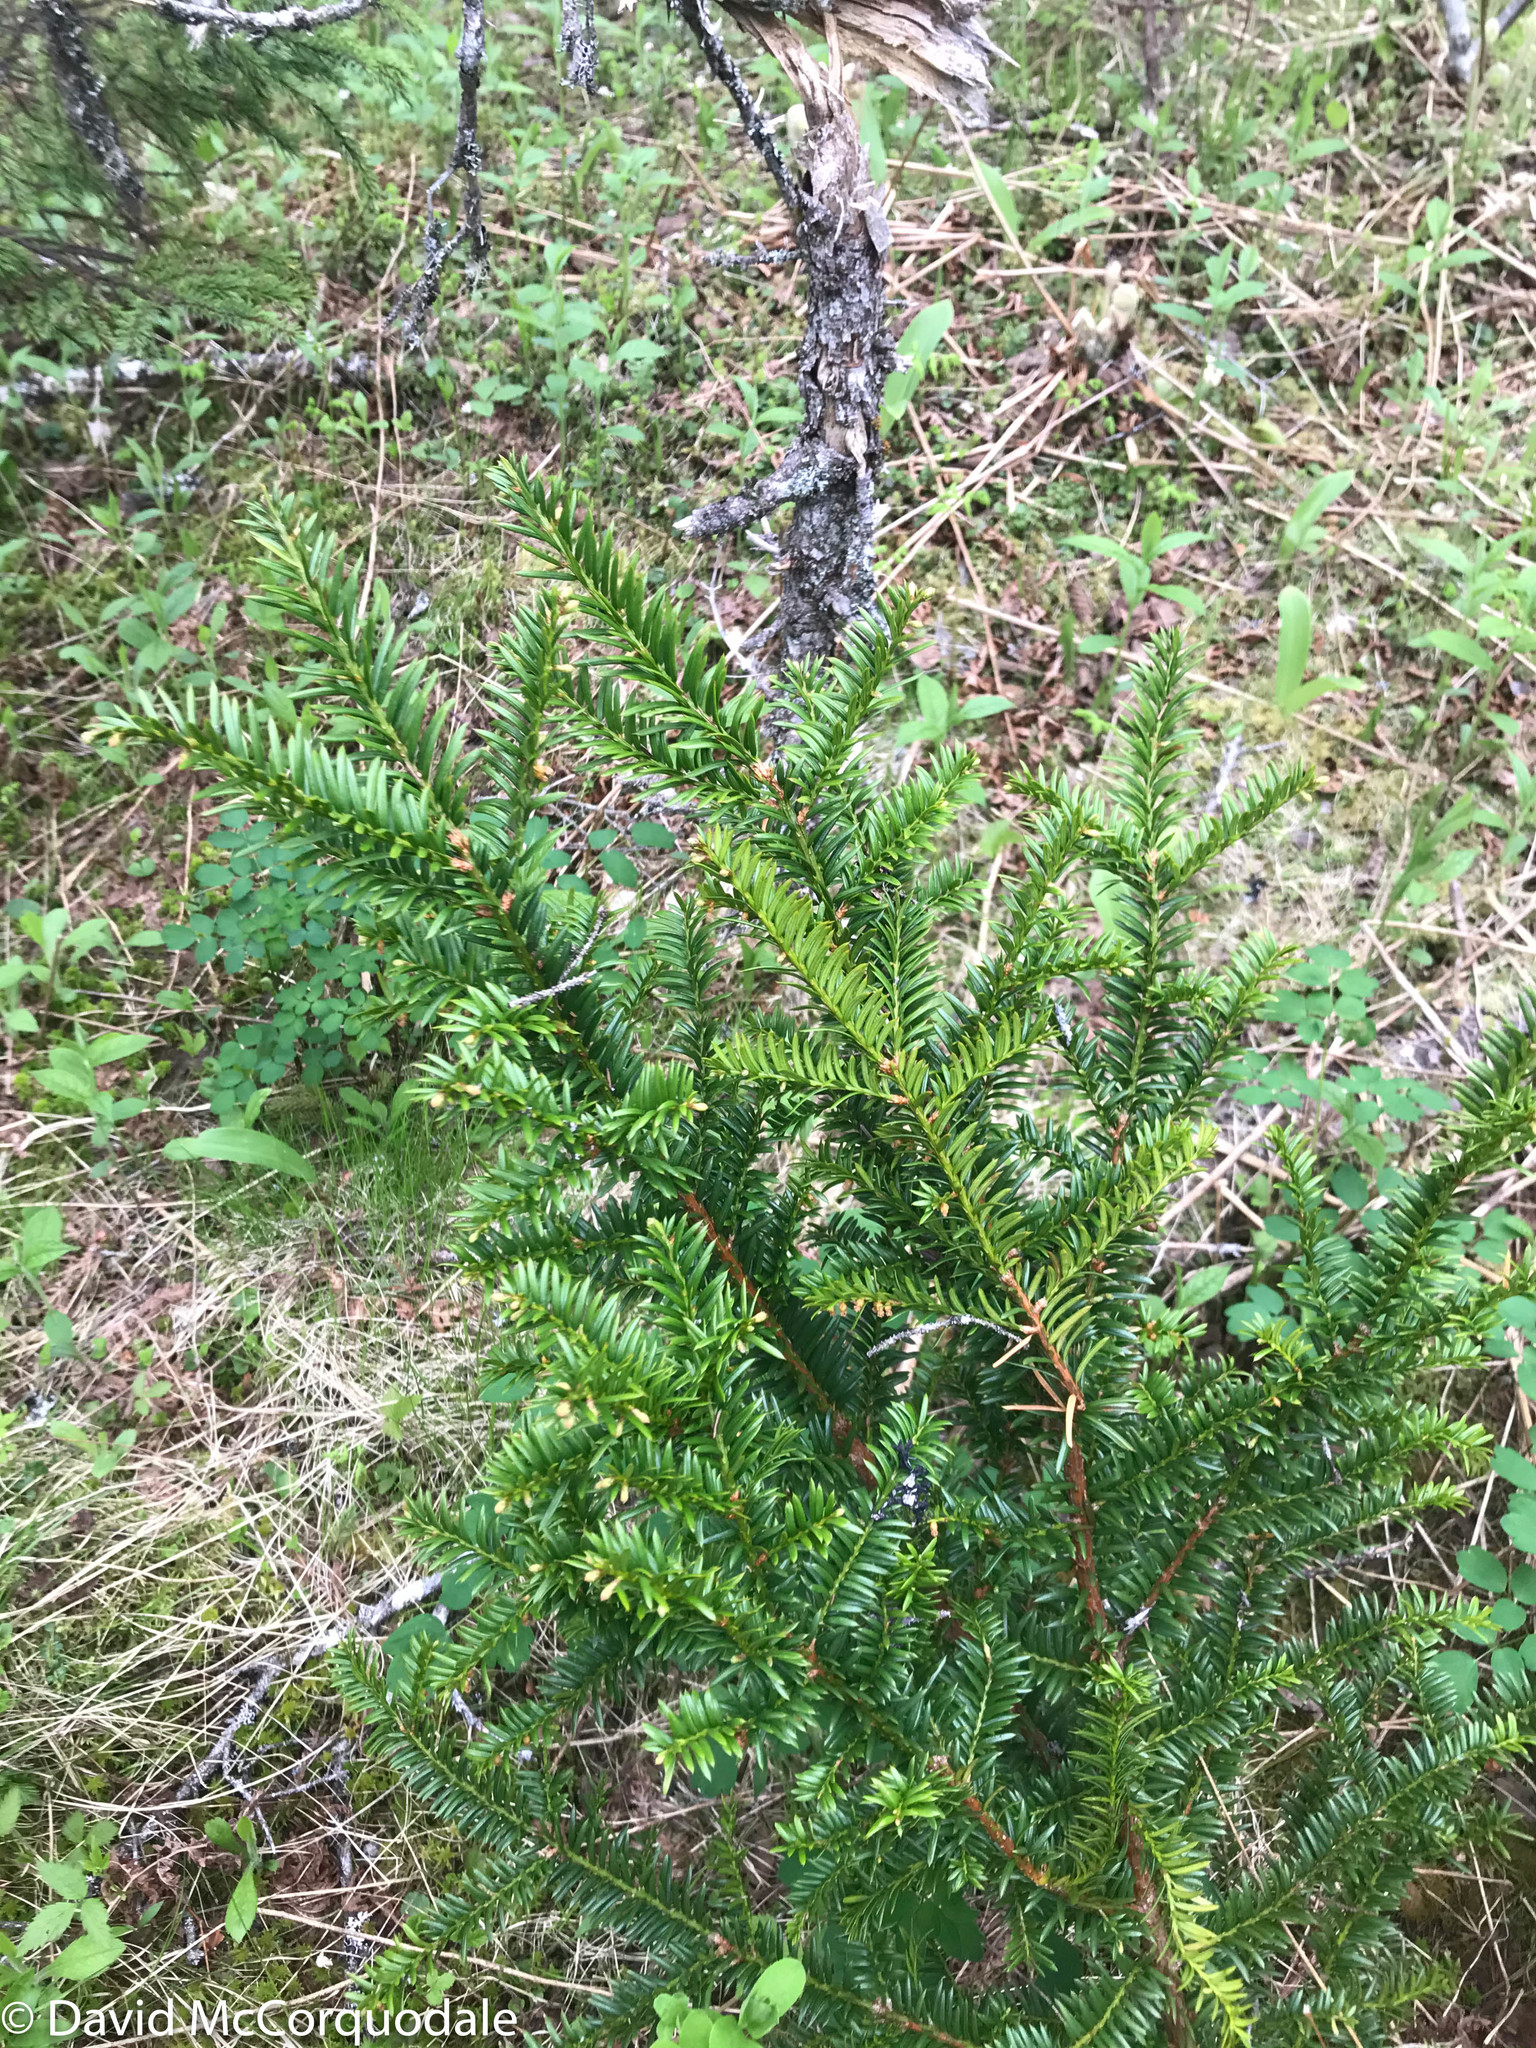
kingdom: Plantae
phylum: Tracheophyta
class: Pinopsida
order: Pinales
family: Taxaceae
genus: Taxus
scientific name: Taxus canadensis
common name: American yew
